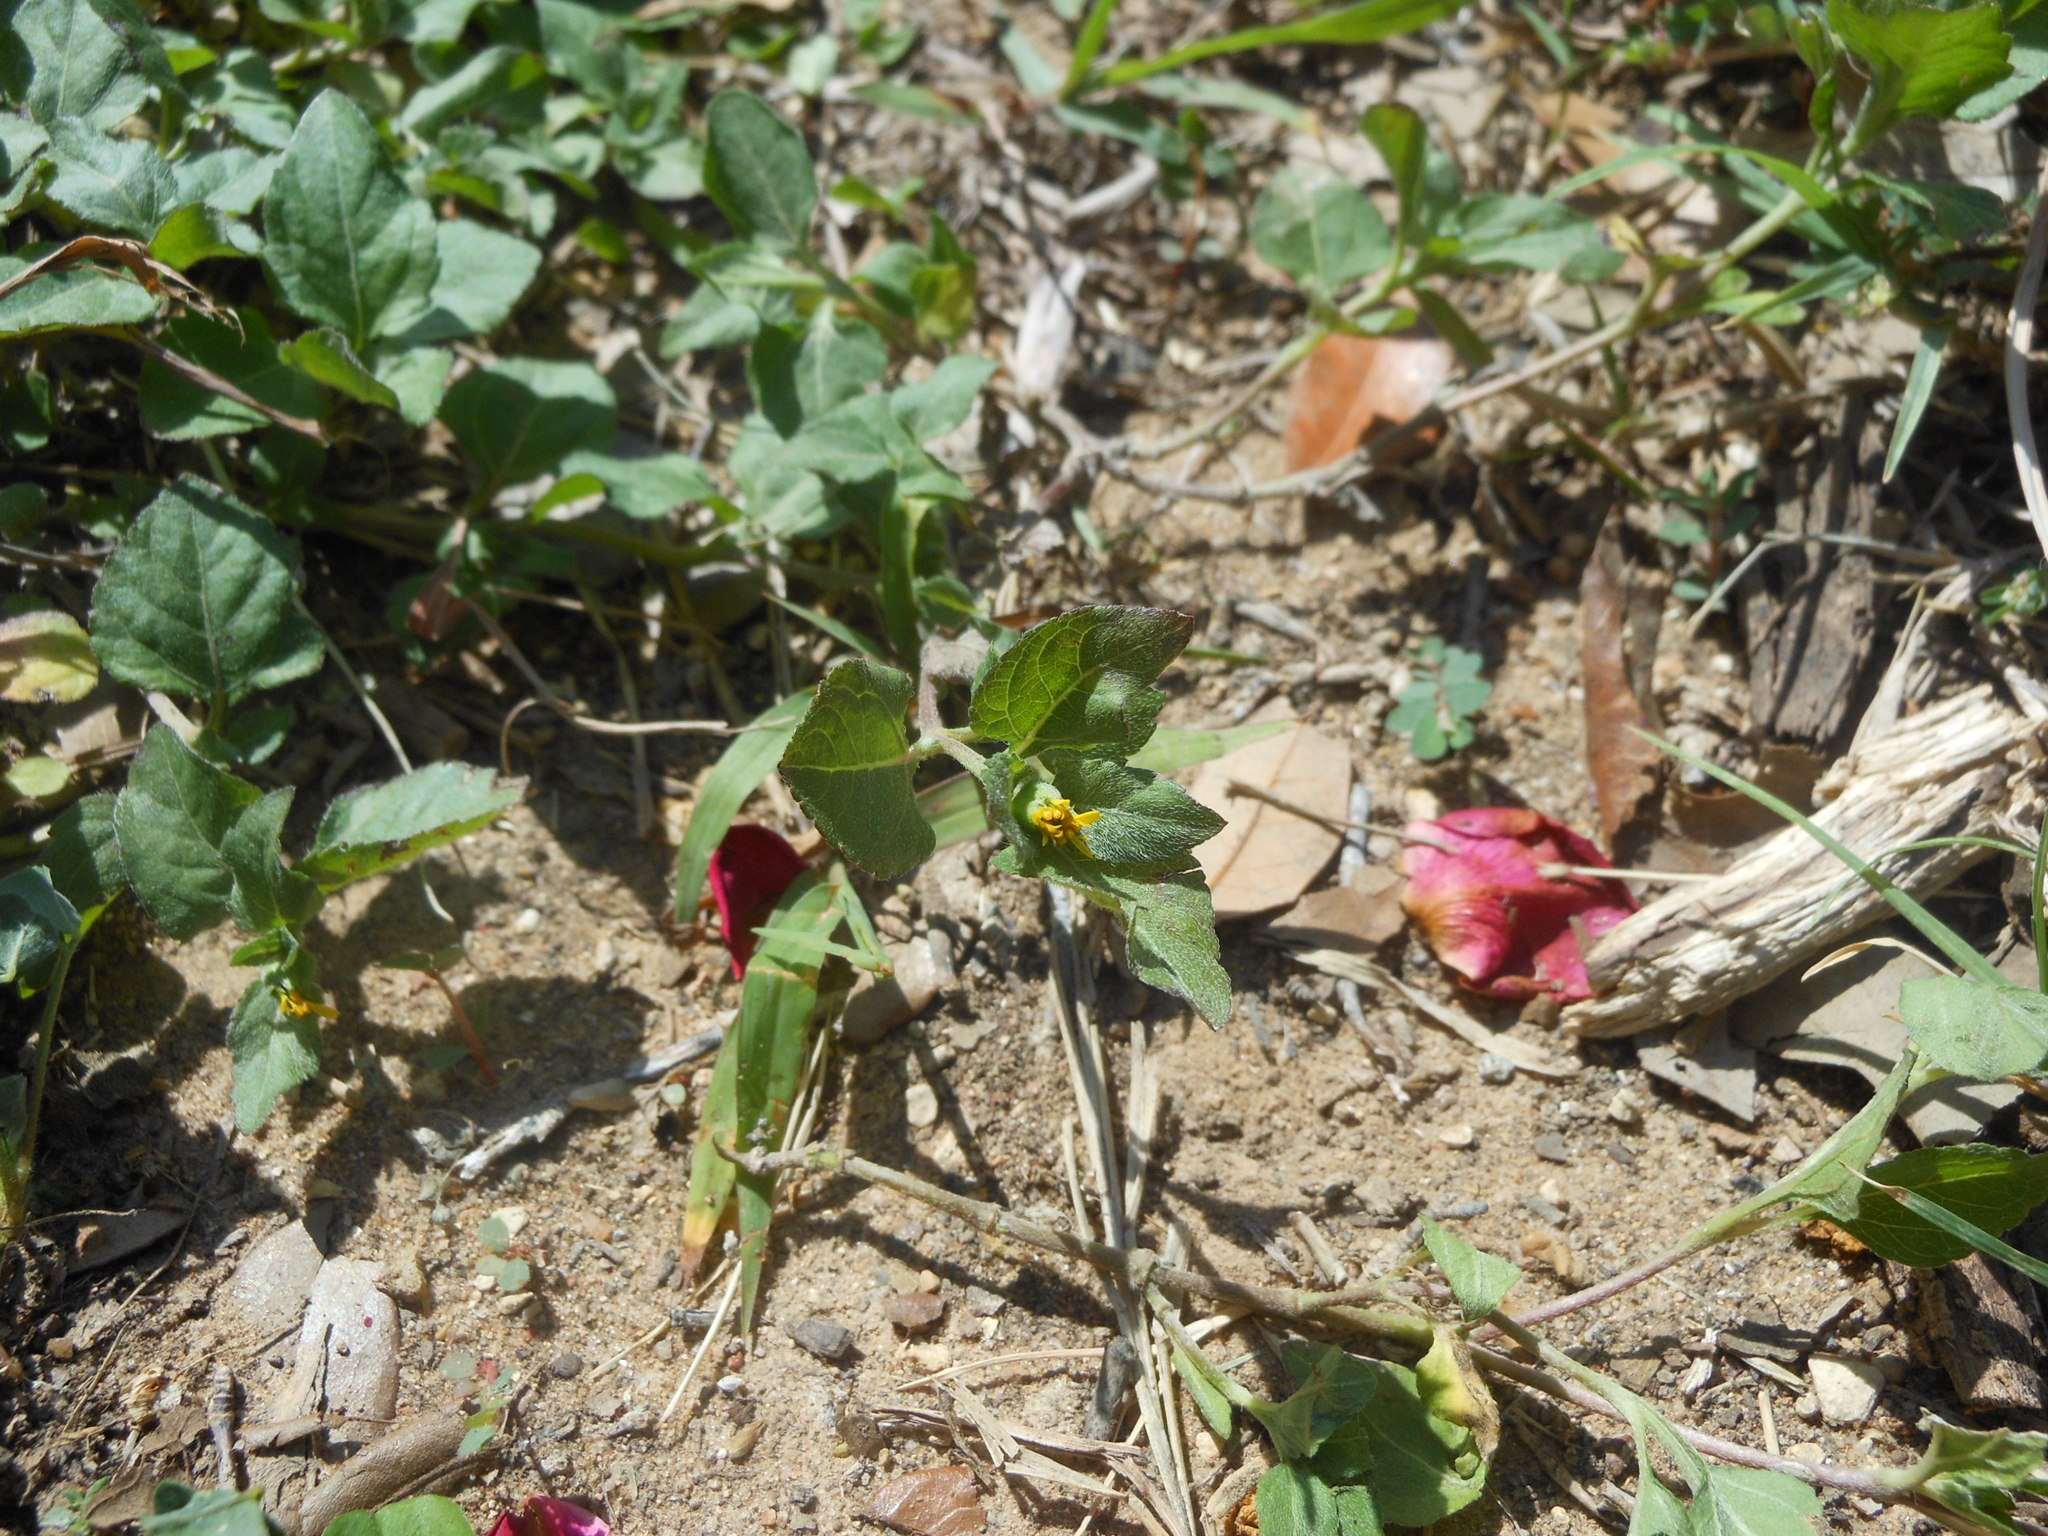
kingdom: Plantae
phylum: Tracheophyta
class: Magnoliopsida
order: Asterales
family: Asteraceae
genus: Calyptocarpus
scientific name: Calyptocarpus vialis
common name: Straggler daisy
